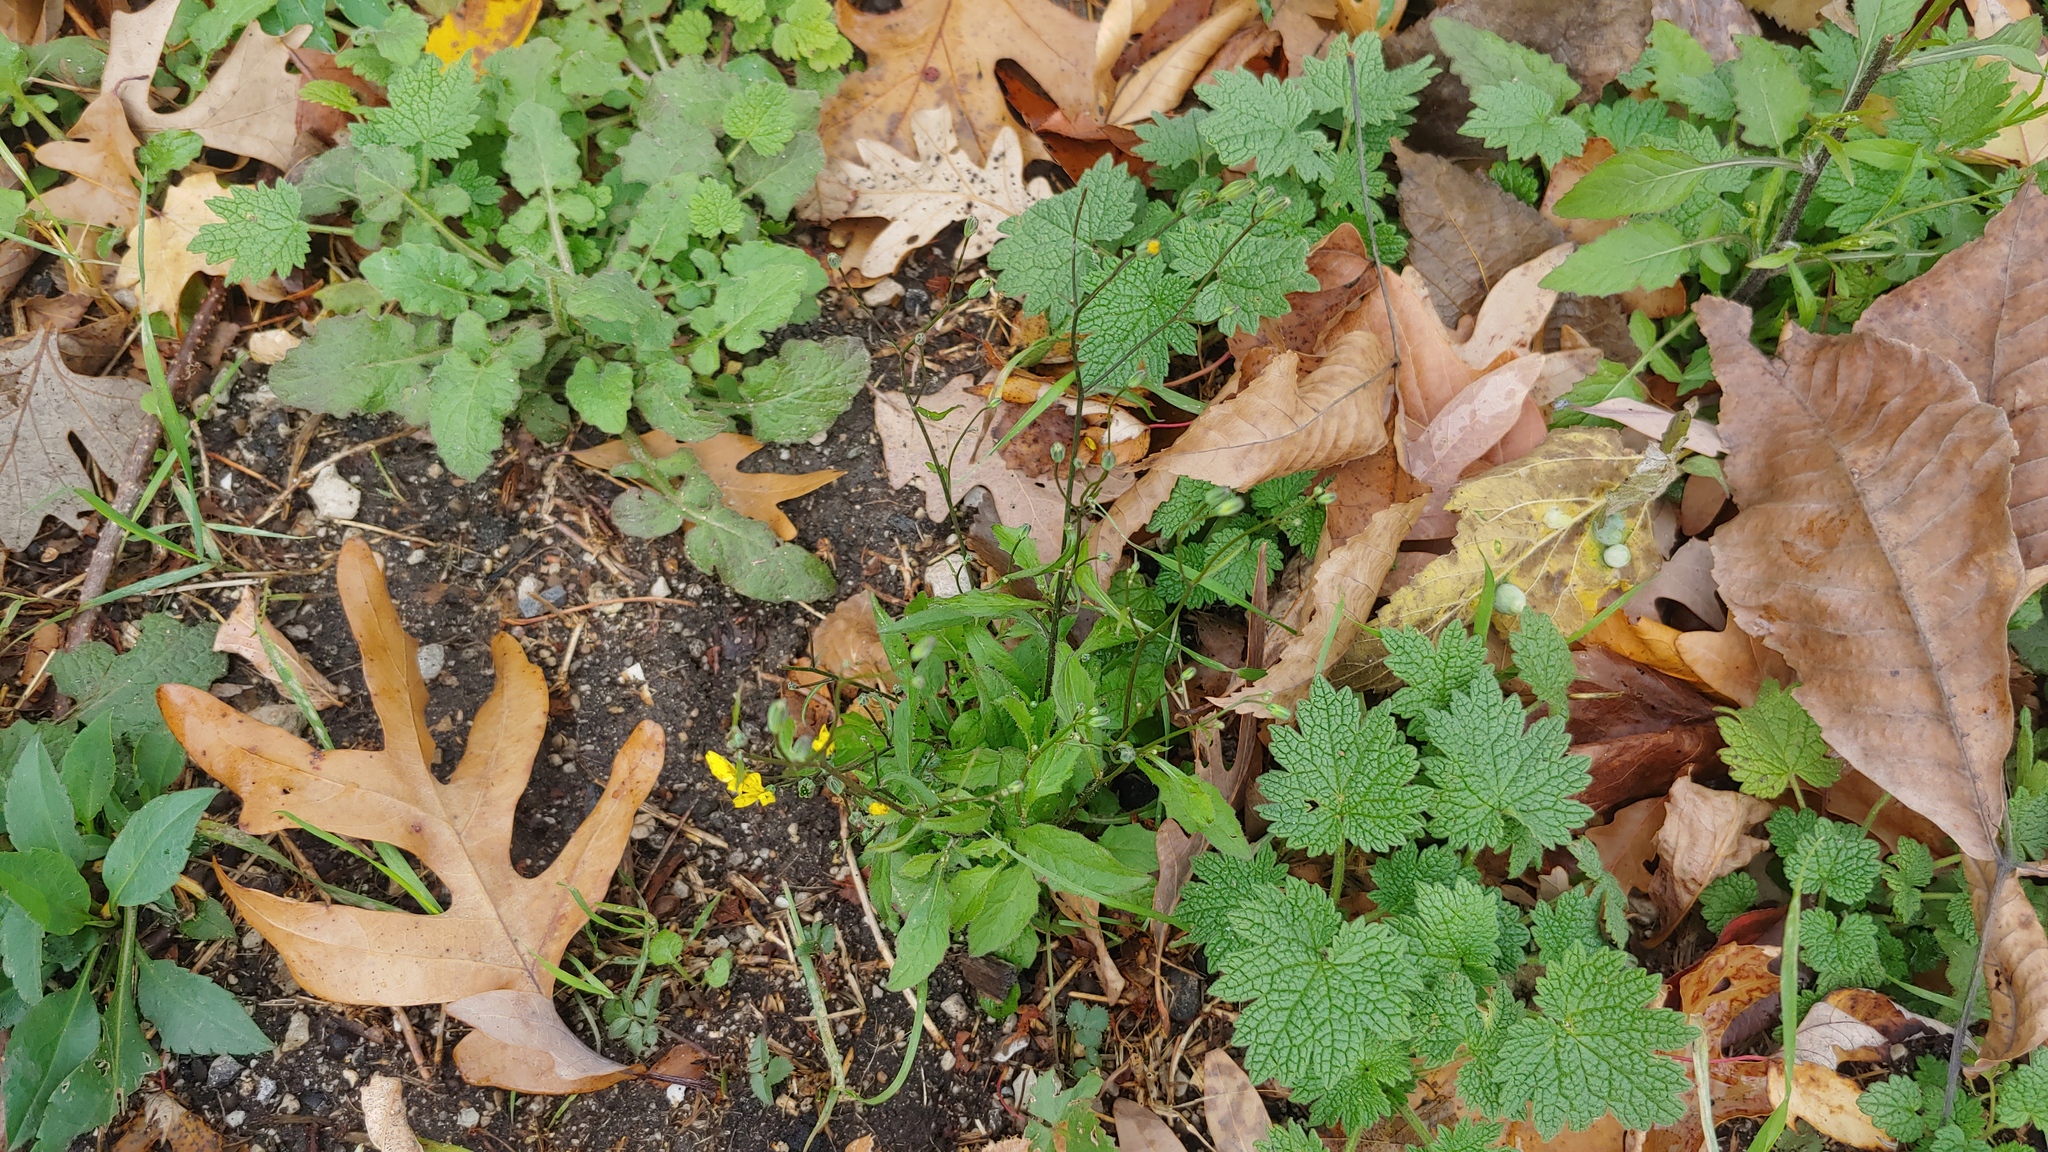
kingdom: Plantae
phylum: Tracheophyta
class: Magnoliopsida
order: Asterales
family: Asteraceae
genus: Lapsana
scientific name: Lapsana communis
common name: Nipplewort
